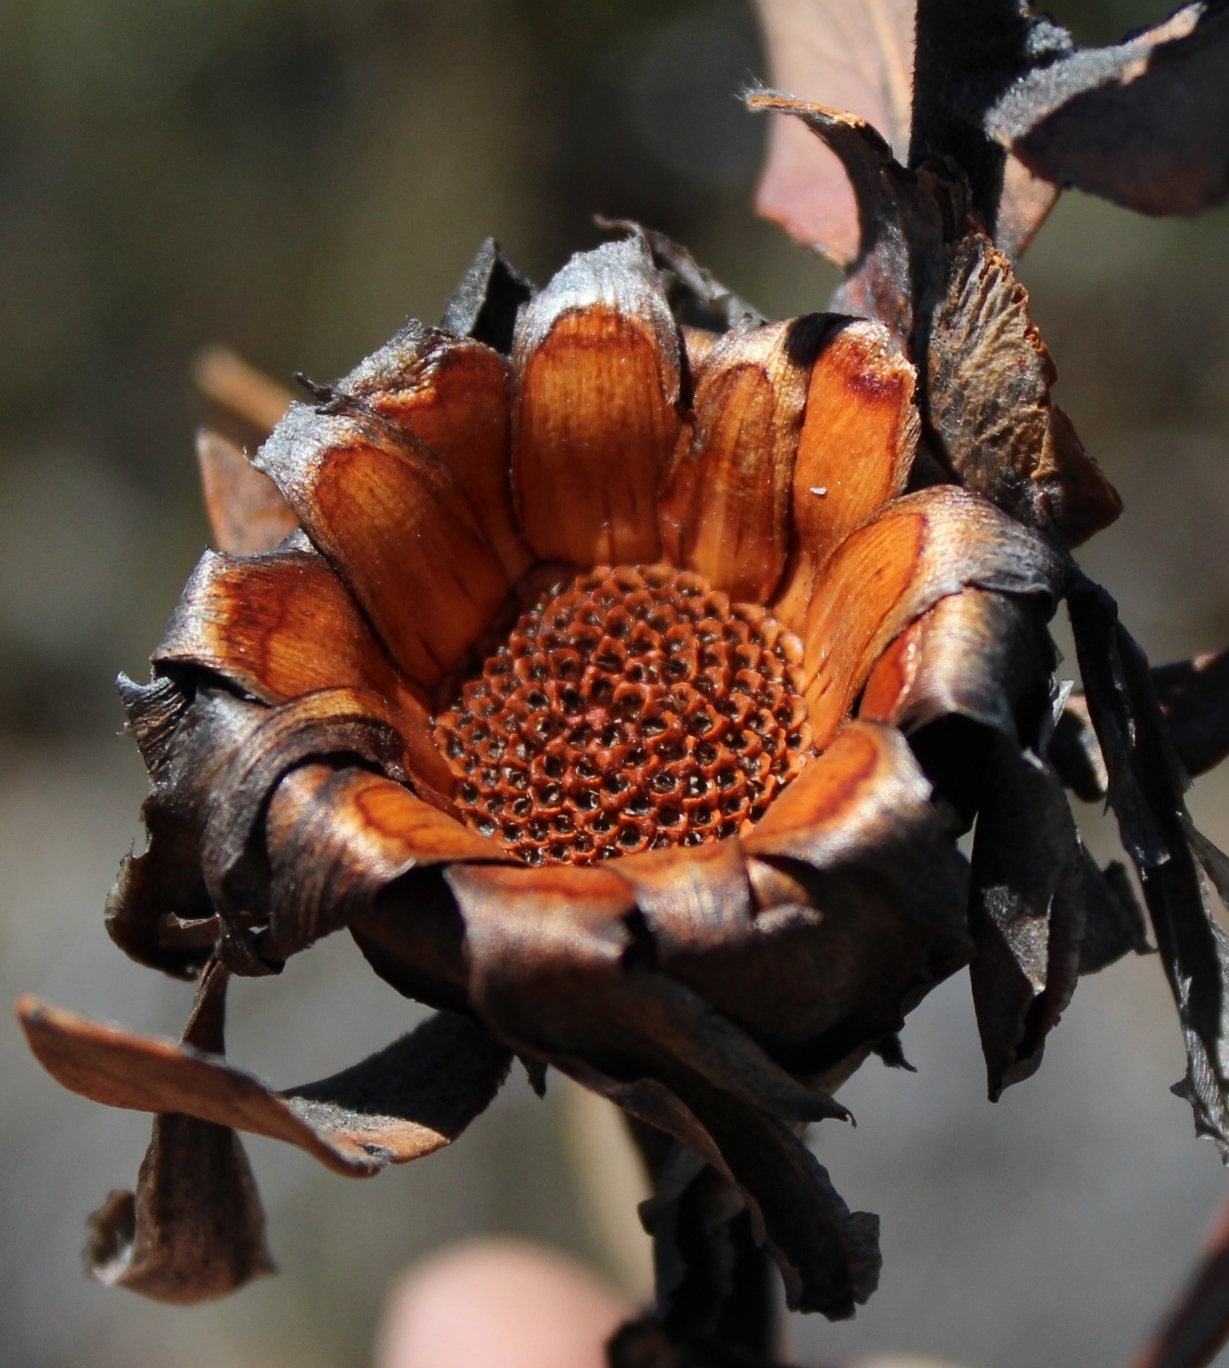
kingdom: Plantae
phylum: Tracheophyta
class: Magnoliopsida
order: Proteales
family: Proteaceae
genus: Protea
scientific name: Protea punctata
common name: Water sugarbush
